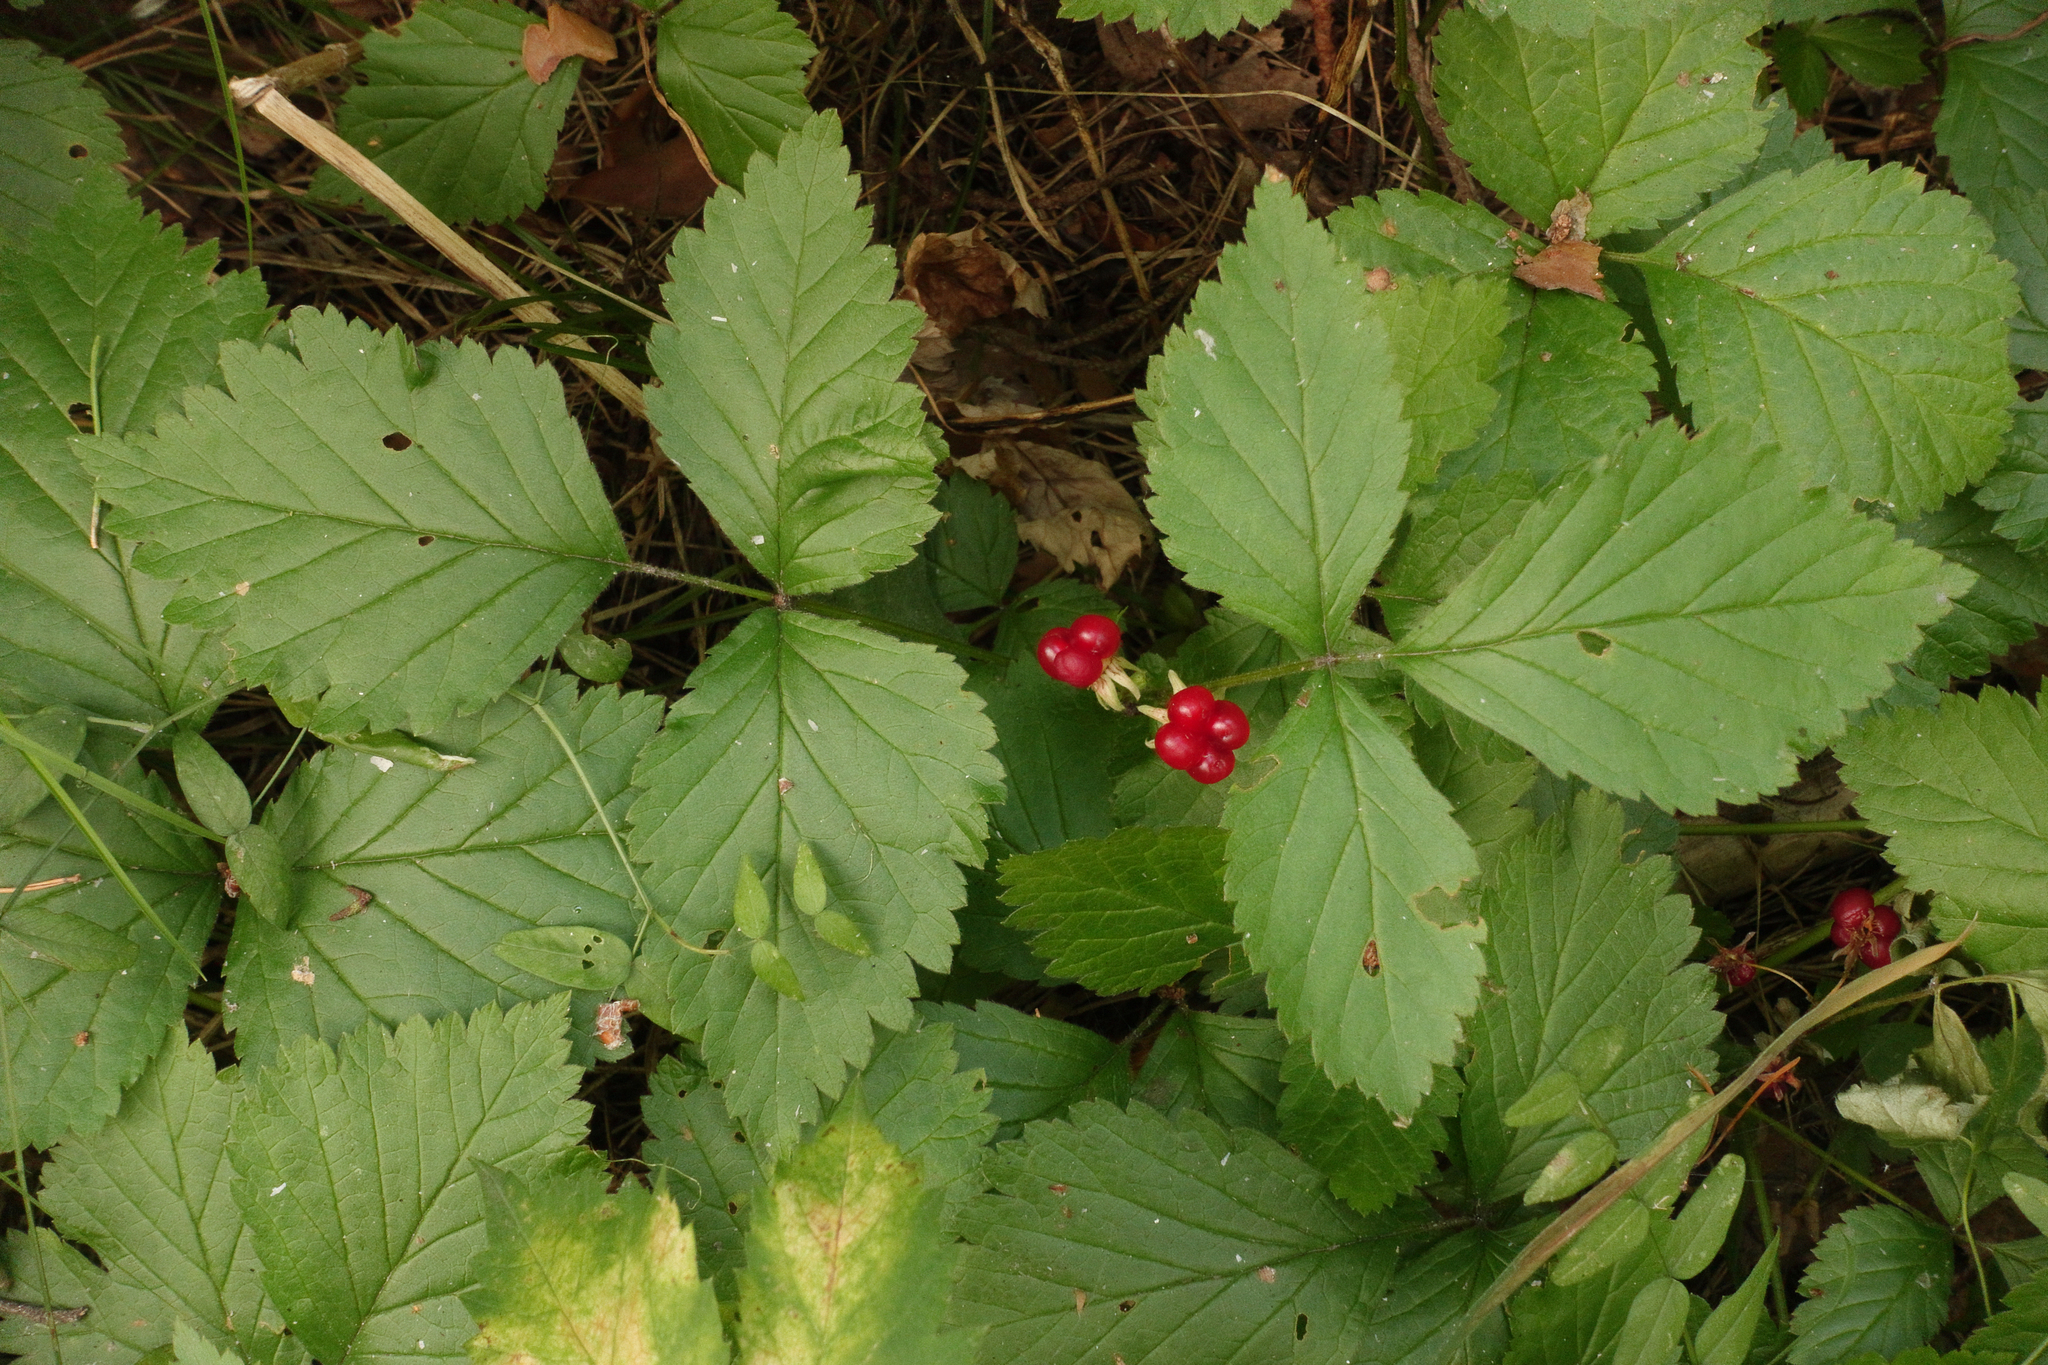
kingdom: Plantae
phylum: Tracheophyta
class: Magnoliopsida
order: Rosales
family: Rosaceae
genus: Rubus
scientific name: Rubus saxatilis
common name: Stone bramble
